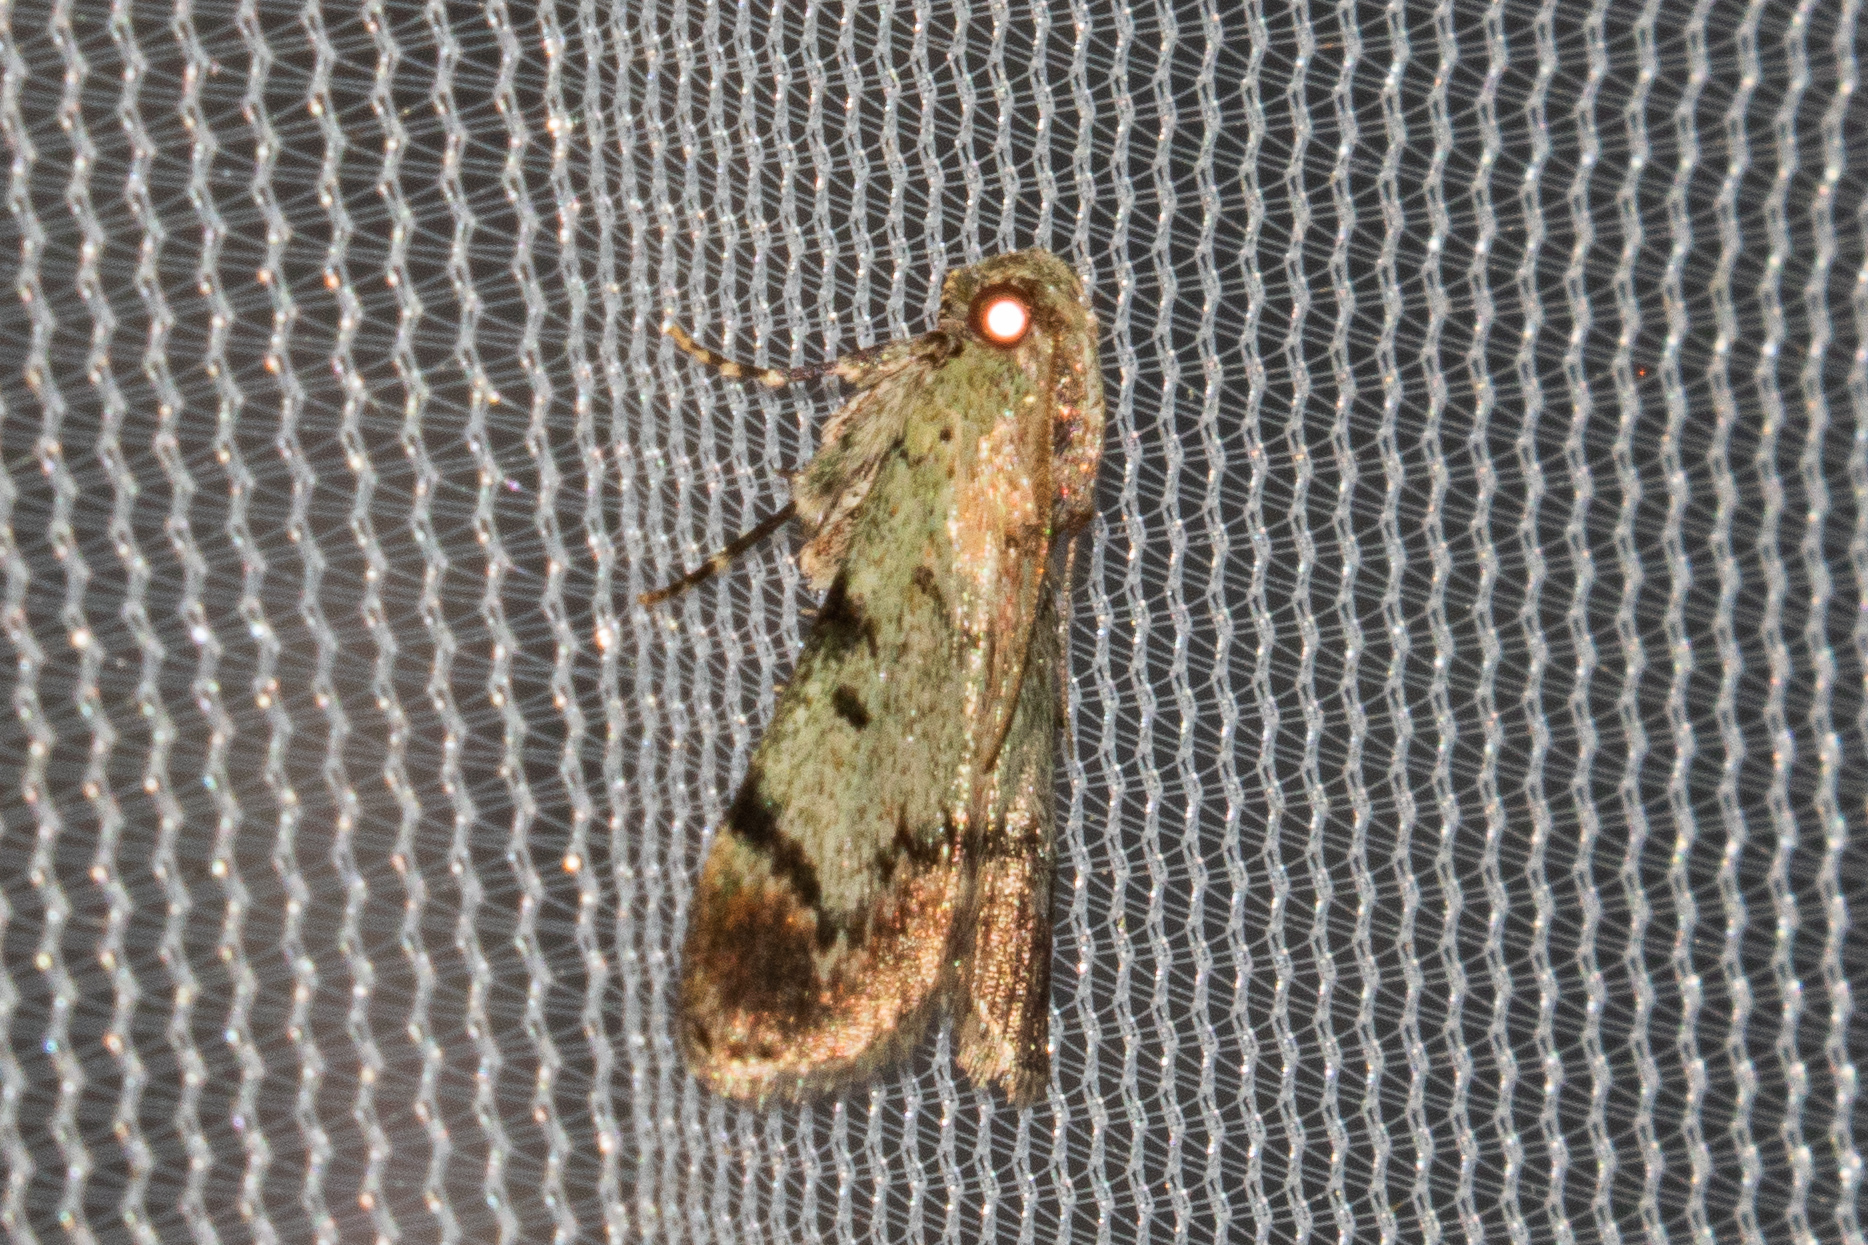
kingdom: Animalia
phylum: Arthropoda
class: Insecta
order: Lepidoptera
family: Pyralidae
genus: Epipaschia
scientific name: Epipaschia superatalis
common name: Dimorphic macalla moth
